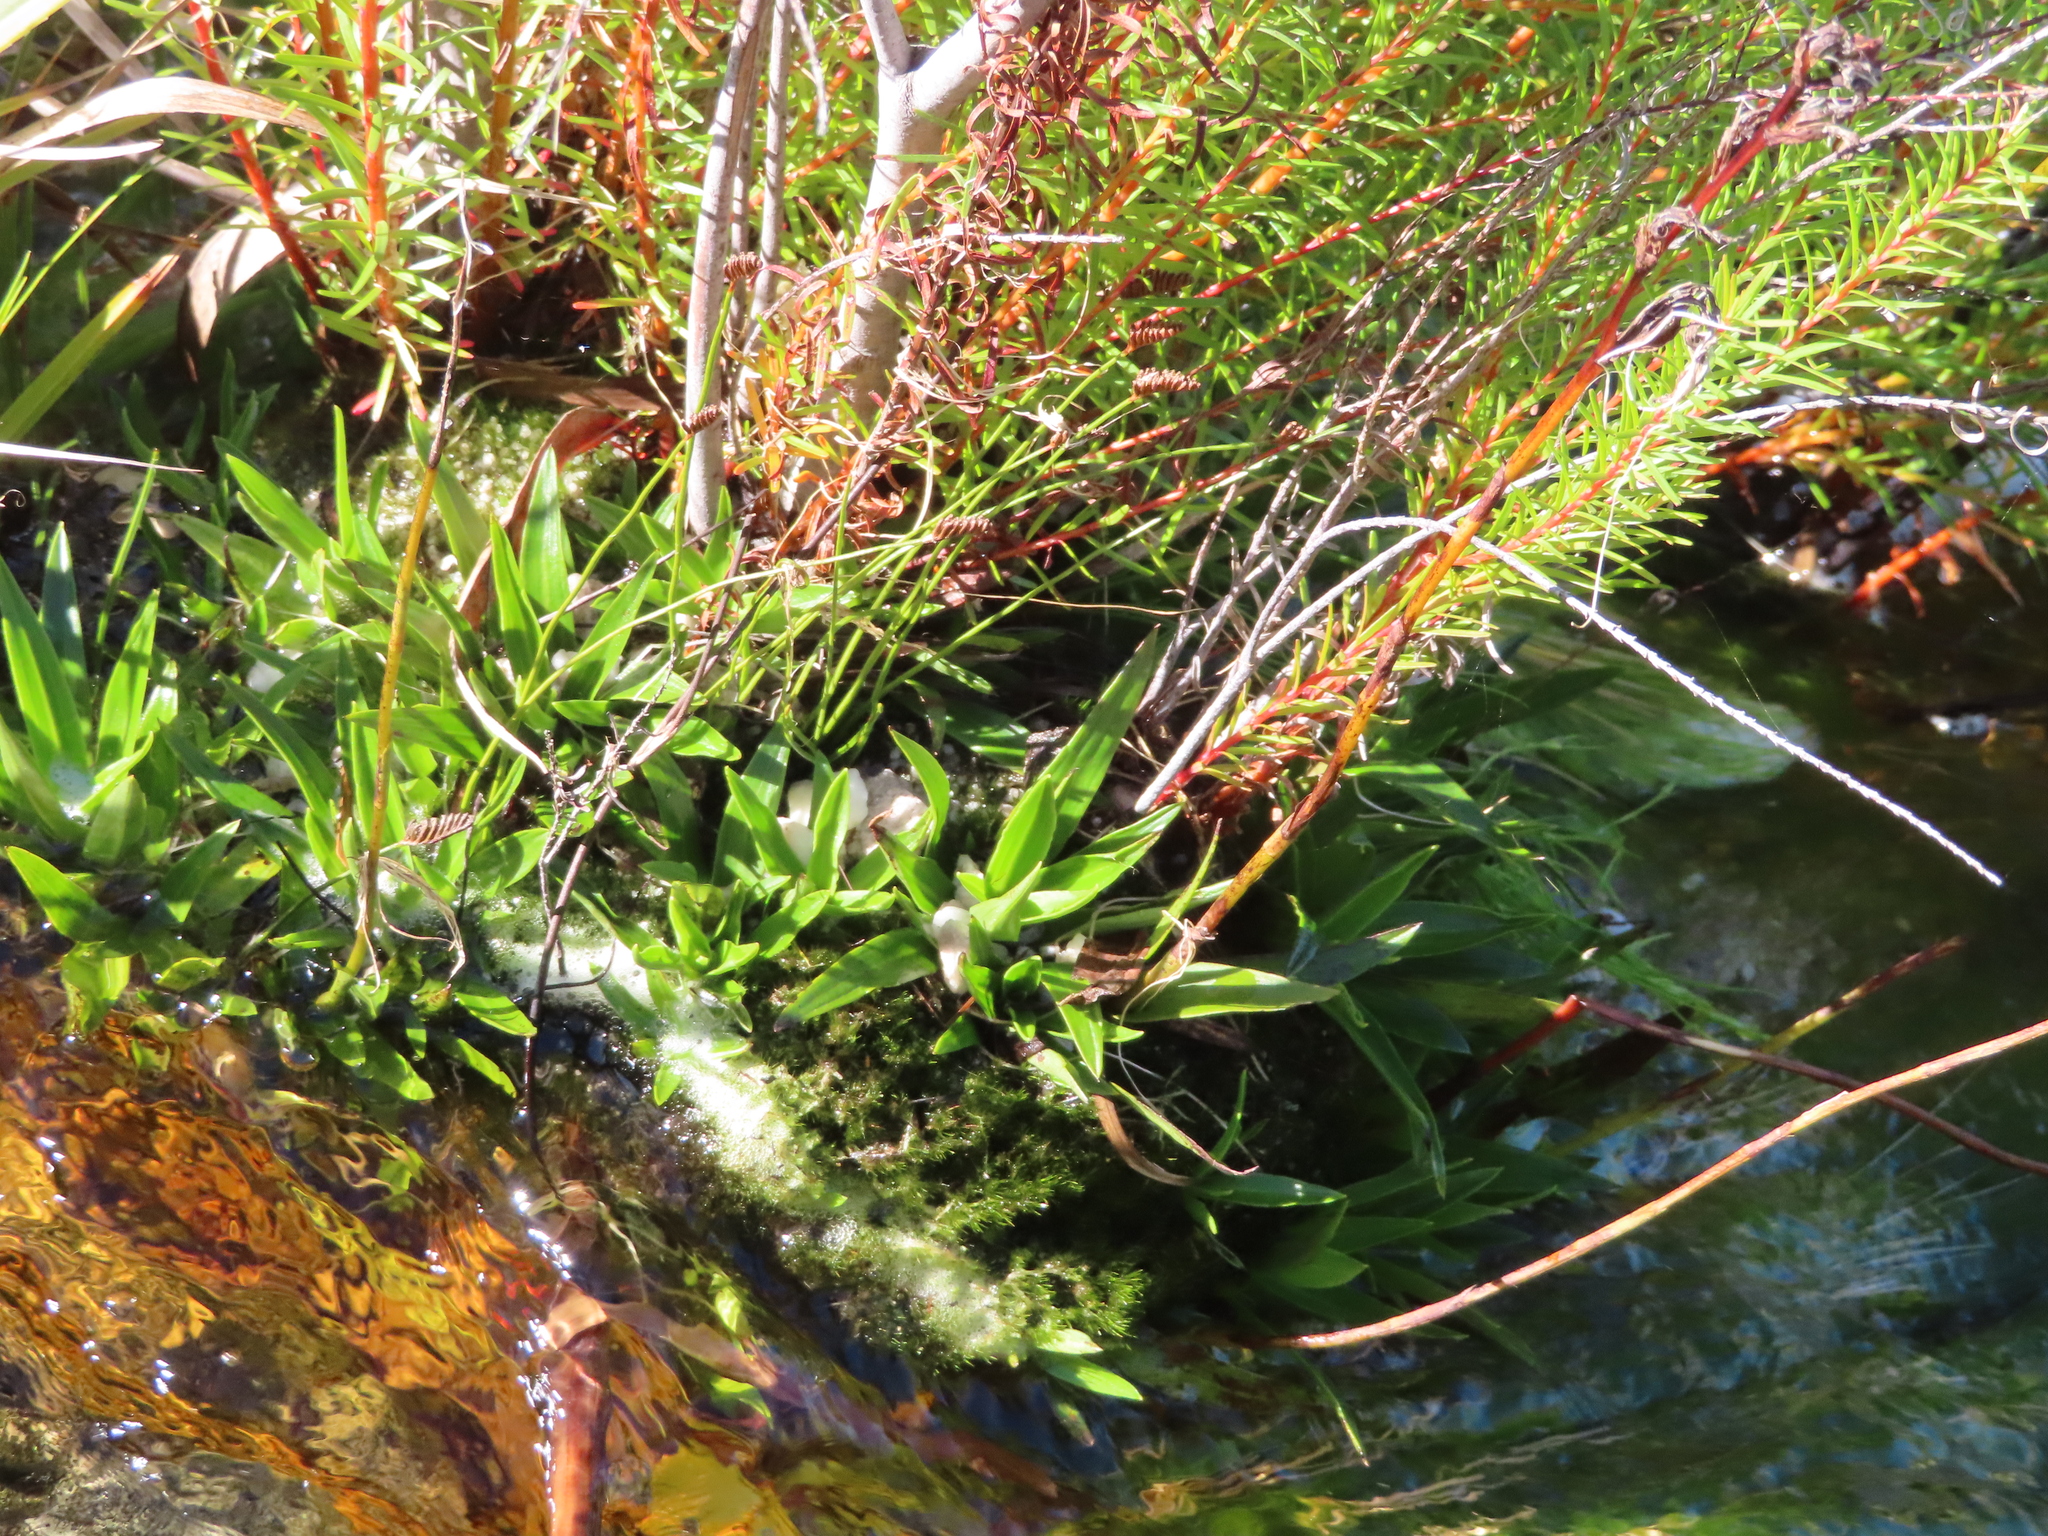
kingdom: Plantae
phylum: Tracheophyta
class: Liliopsida
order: Asparagales
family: Orchidaceae
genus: Disa
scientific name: Disa tripetaloides
